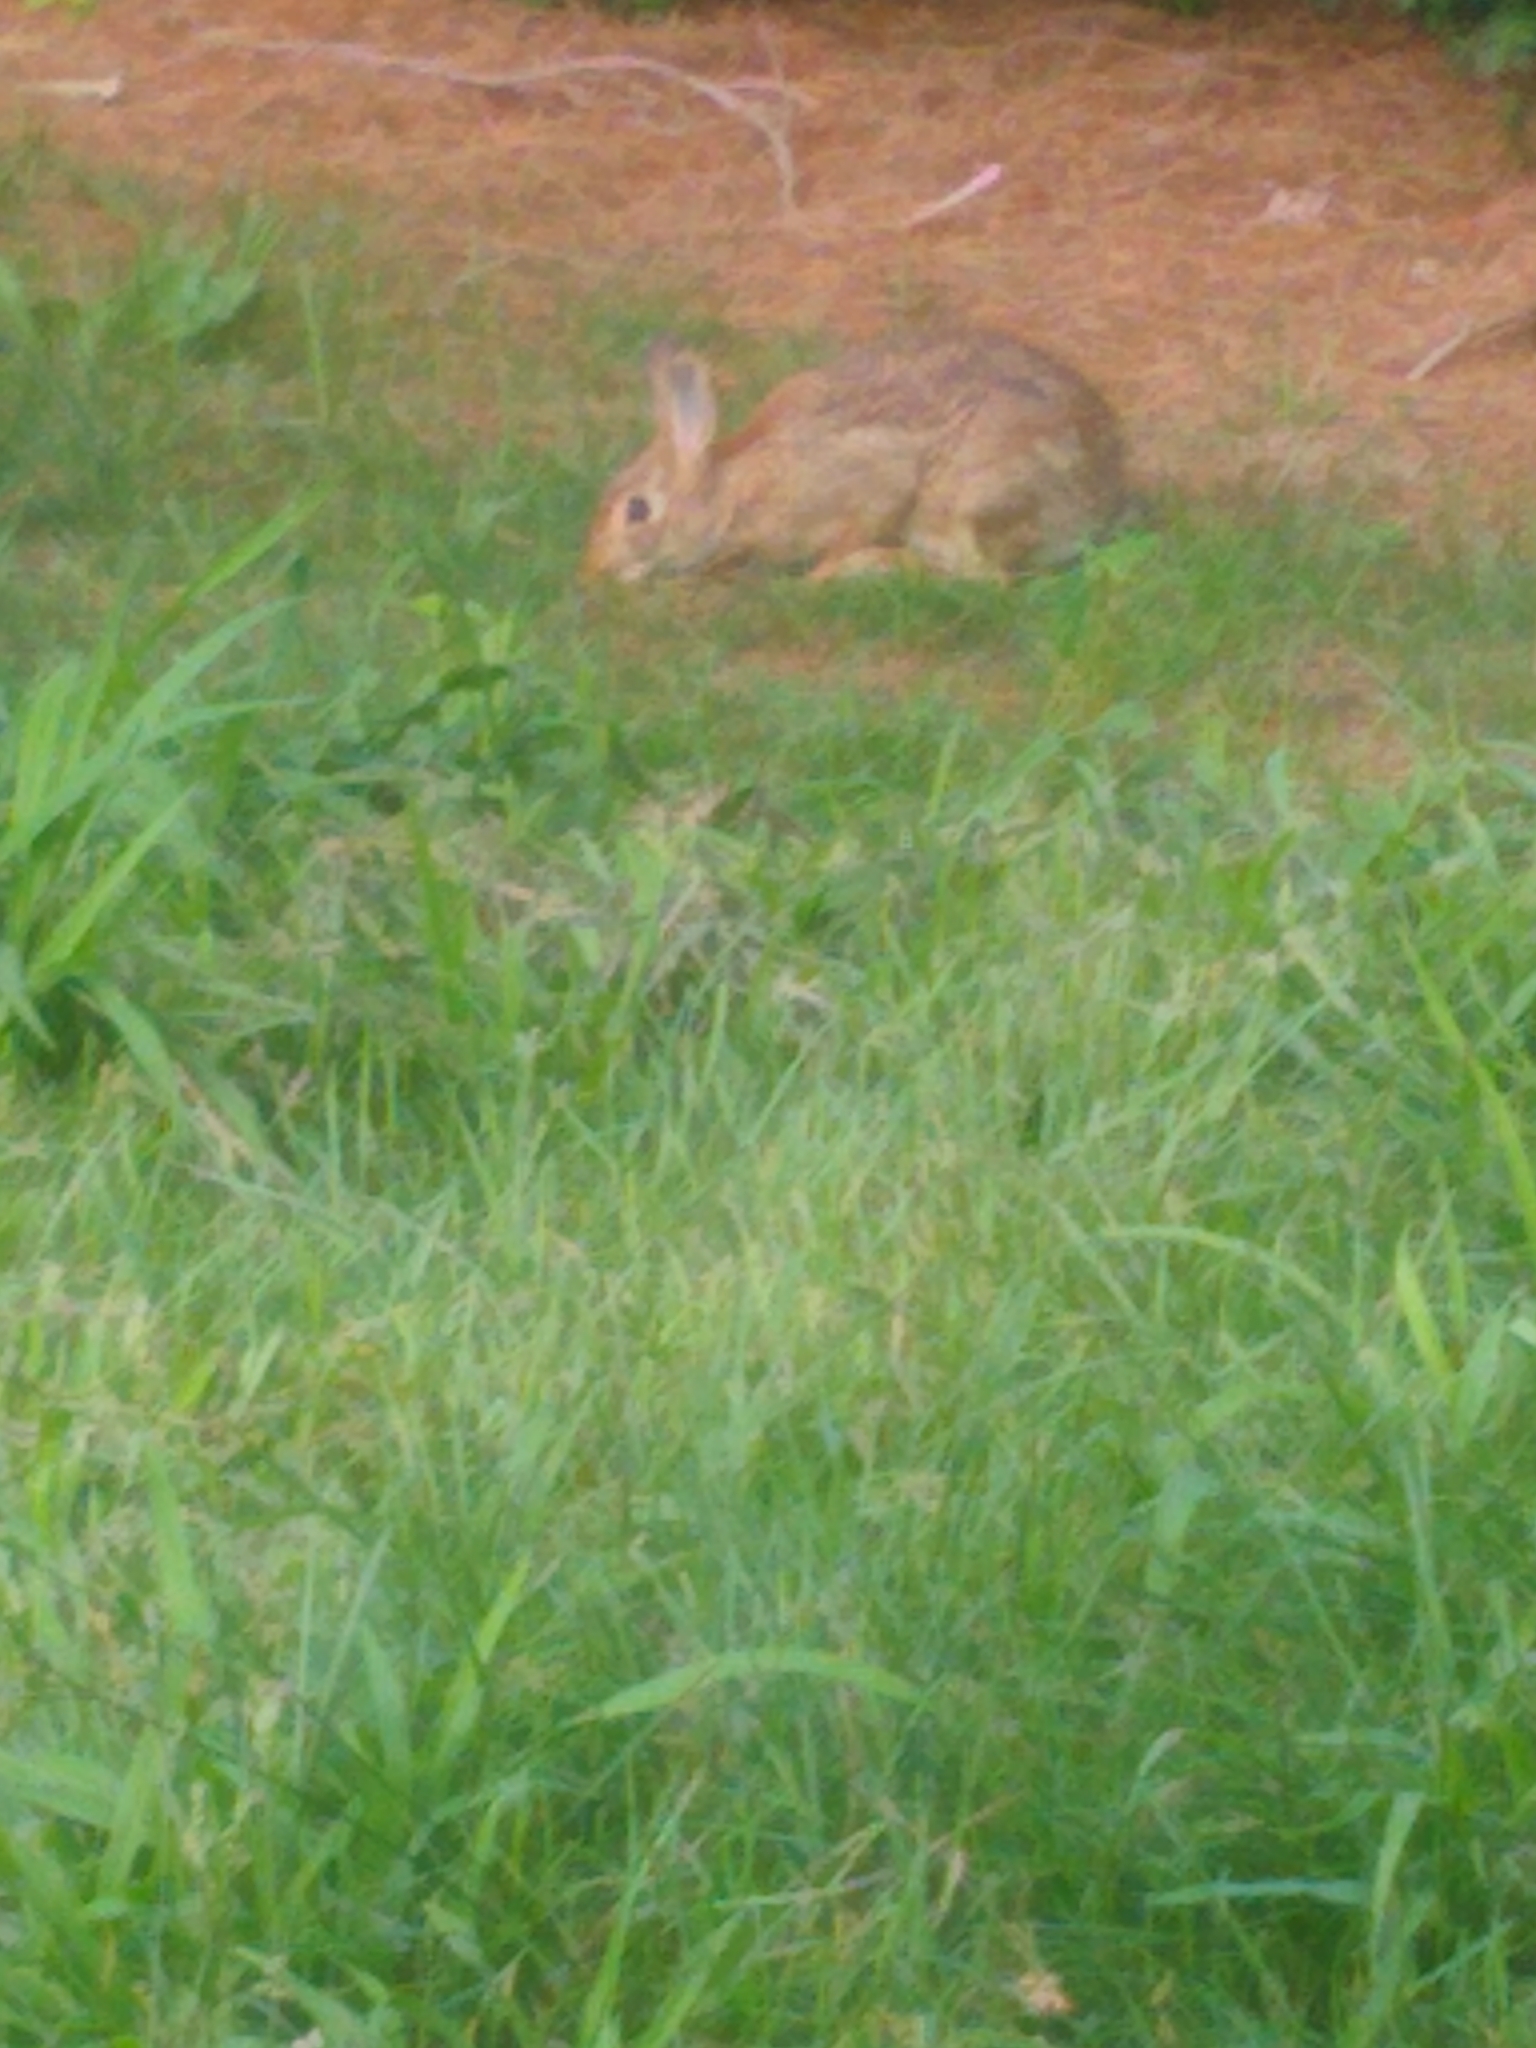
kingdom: Animalia
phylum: Chordata
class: Mammalia
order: Lagomorpha
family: Leporidae
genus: Sylvilagus
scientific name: Sylvilagus floridanus
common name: Eastern cottontail
